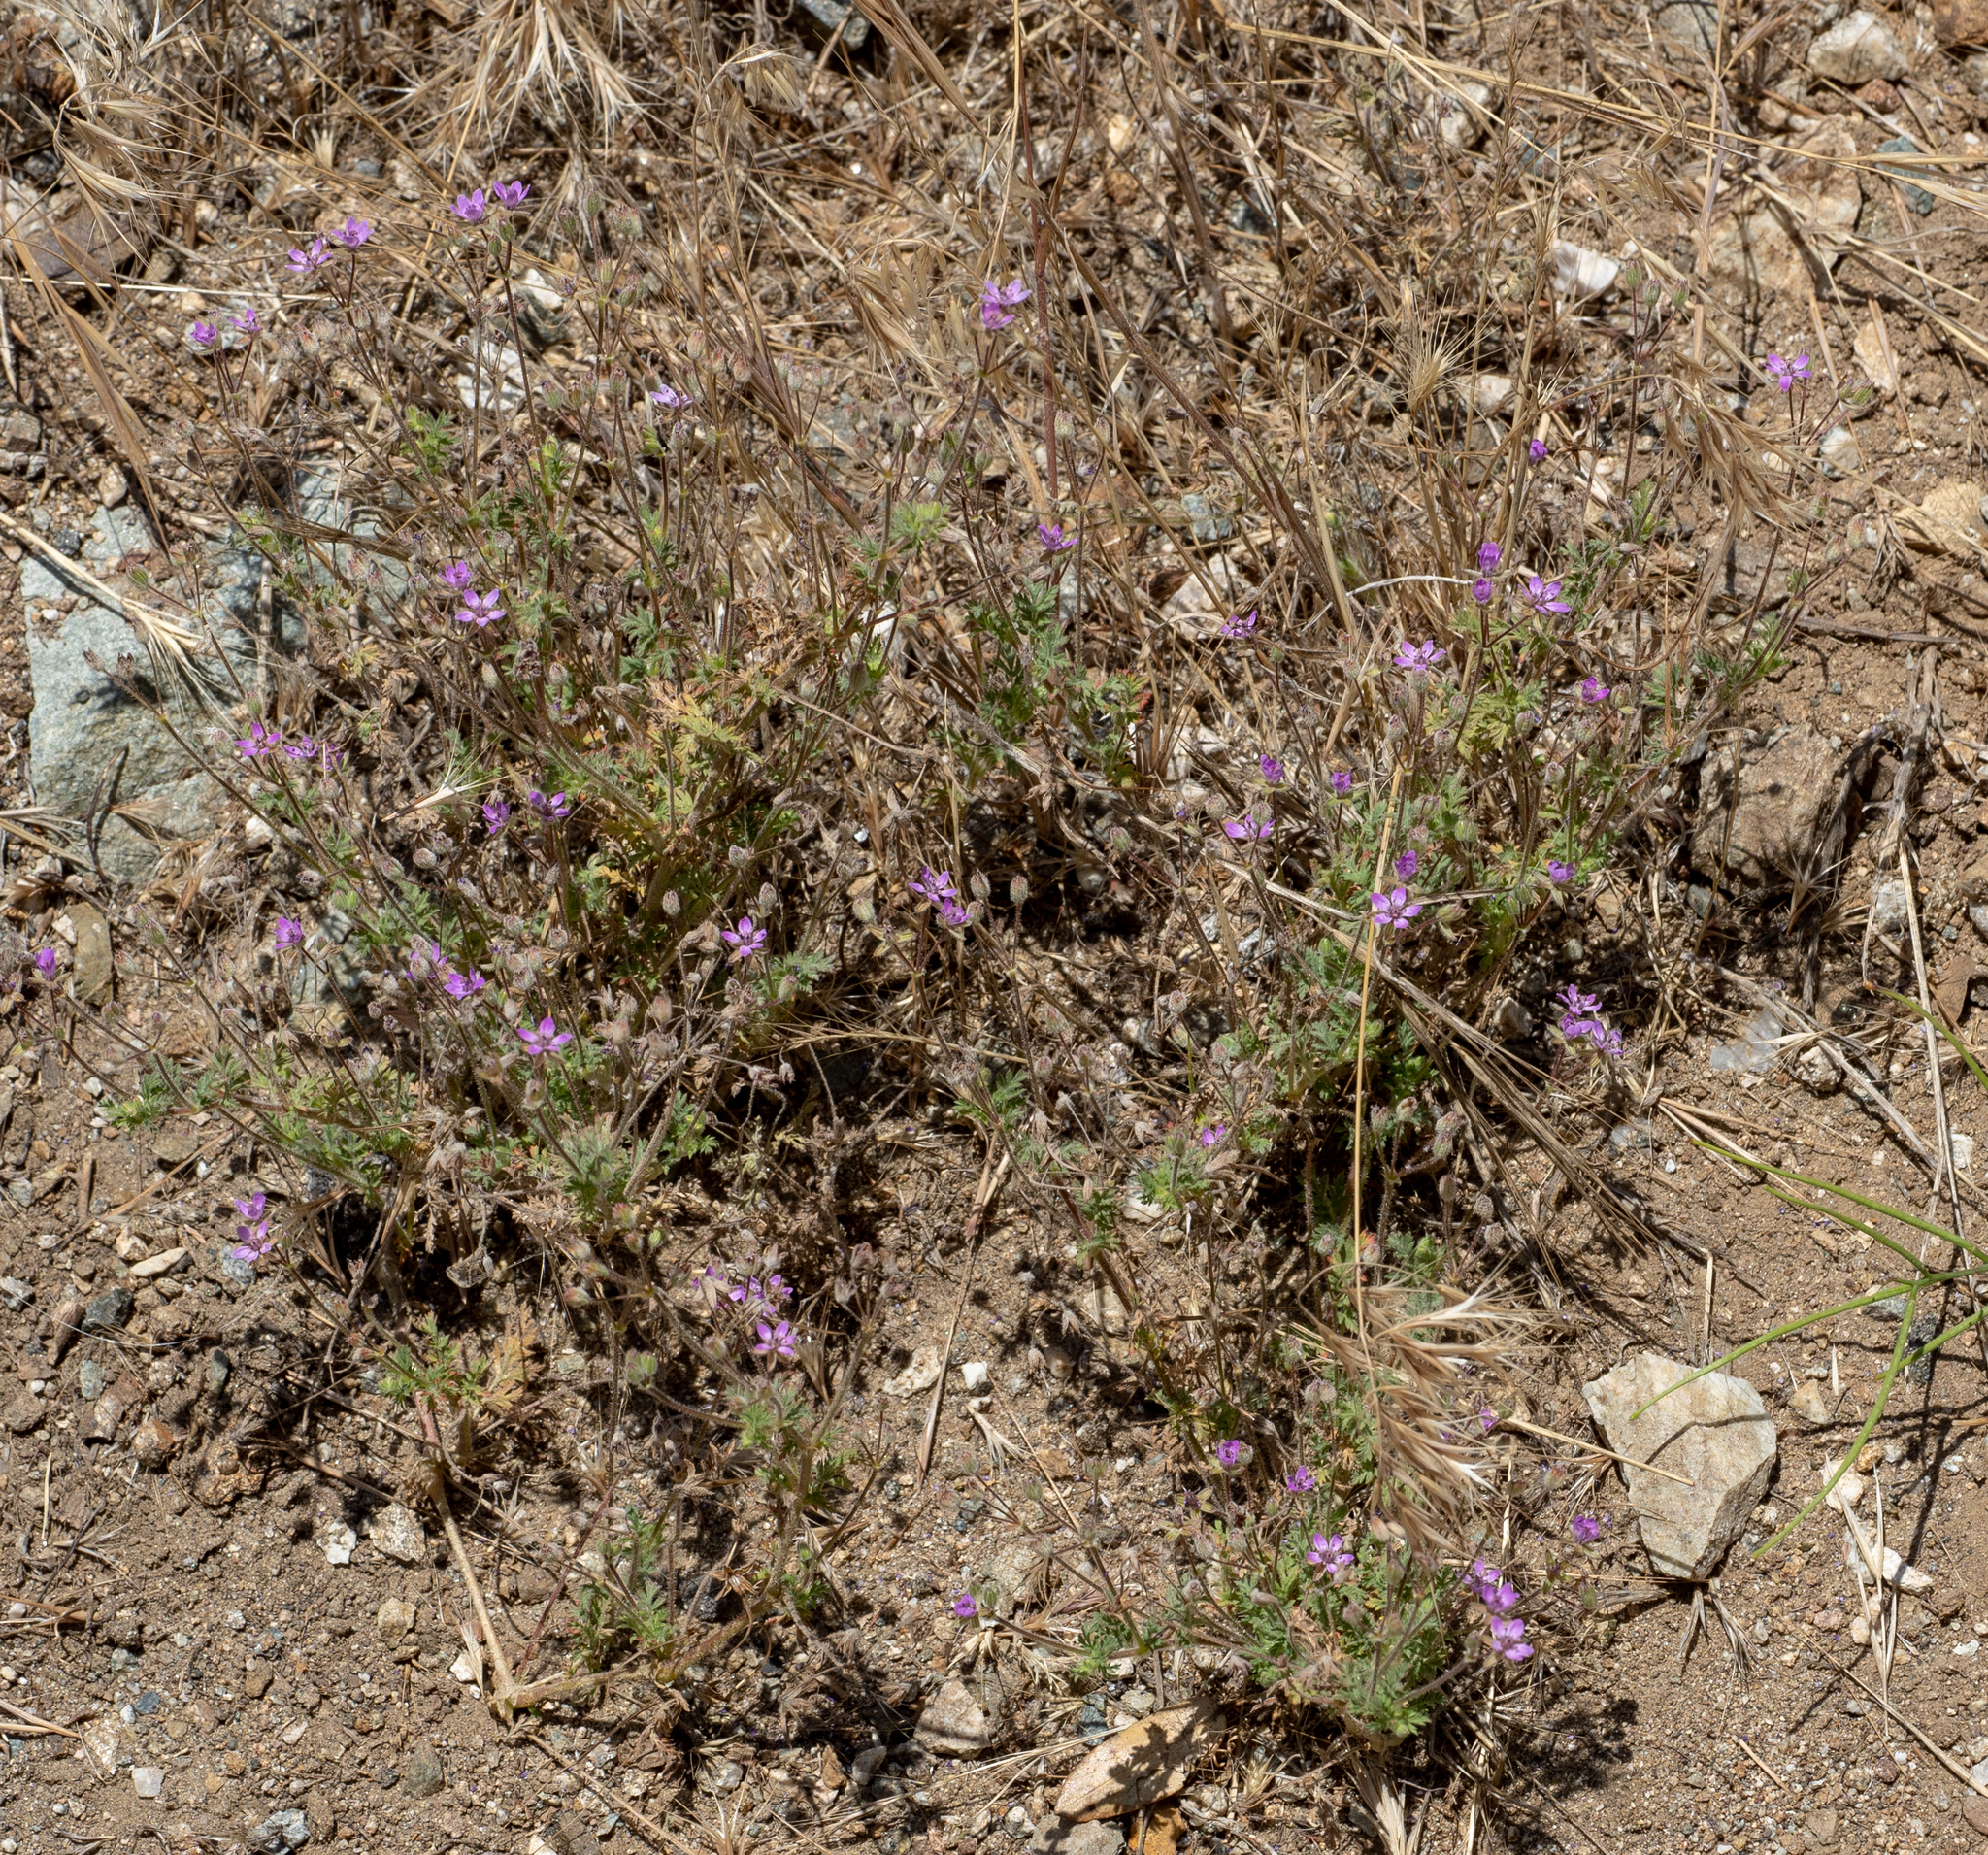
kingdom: Plantae
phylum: Tracheophyta
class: Magnoliopsida
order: Geraniales
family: Geraniaceae
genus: Erodium
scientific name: Erodium cicutarium
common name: Common stork's-bill
